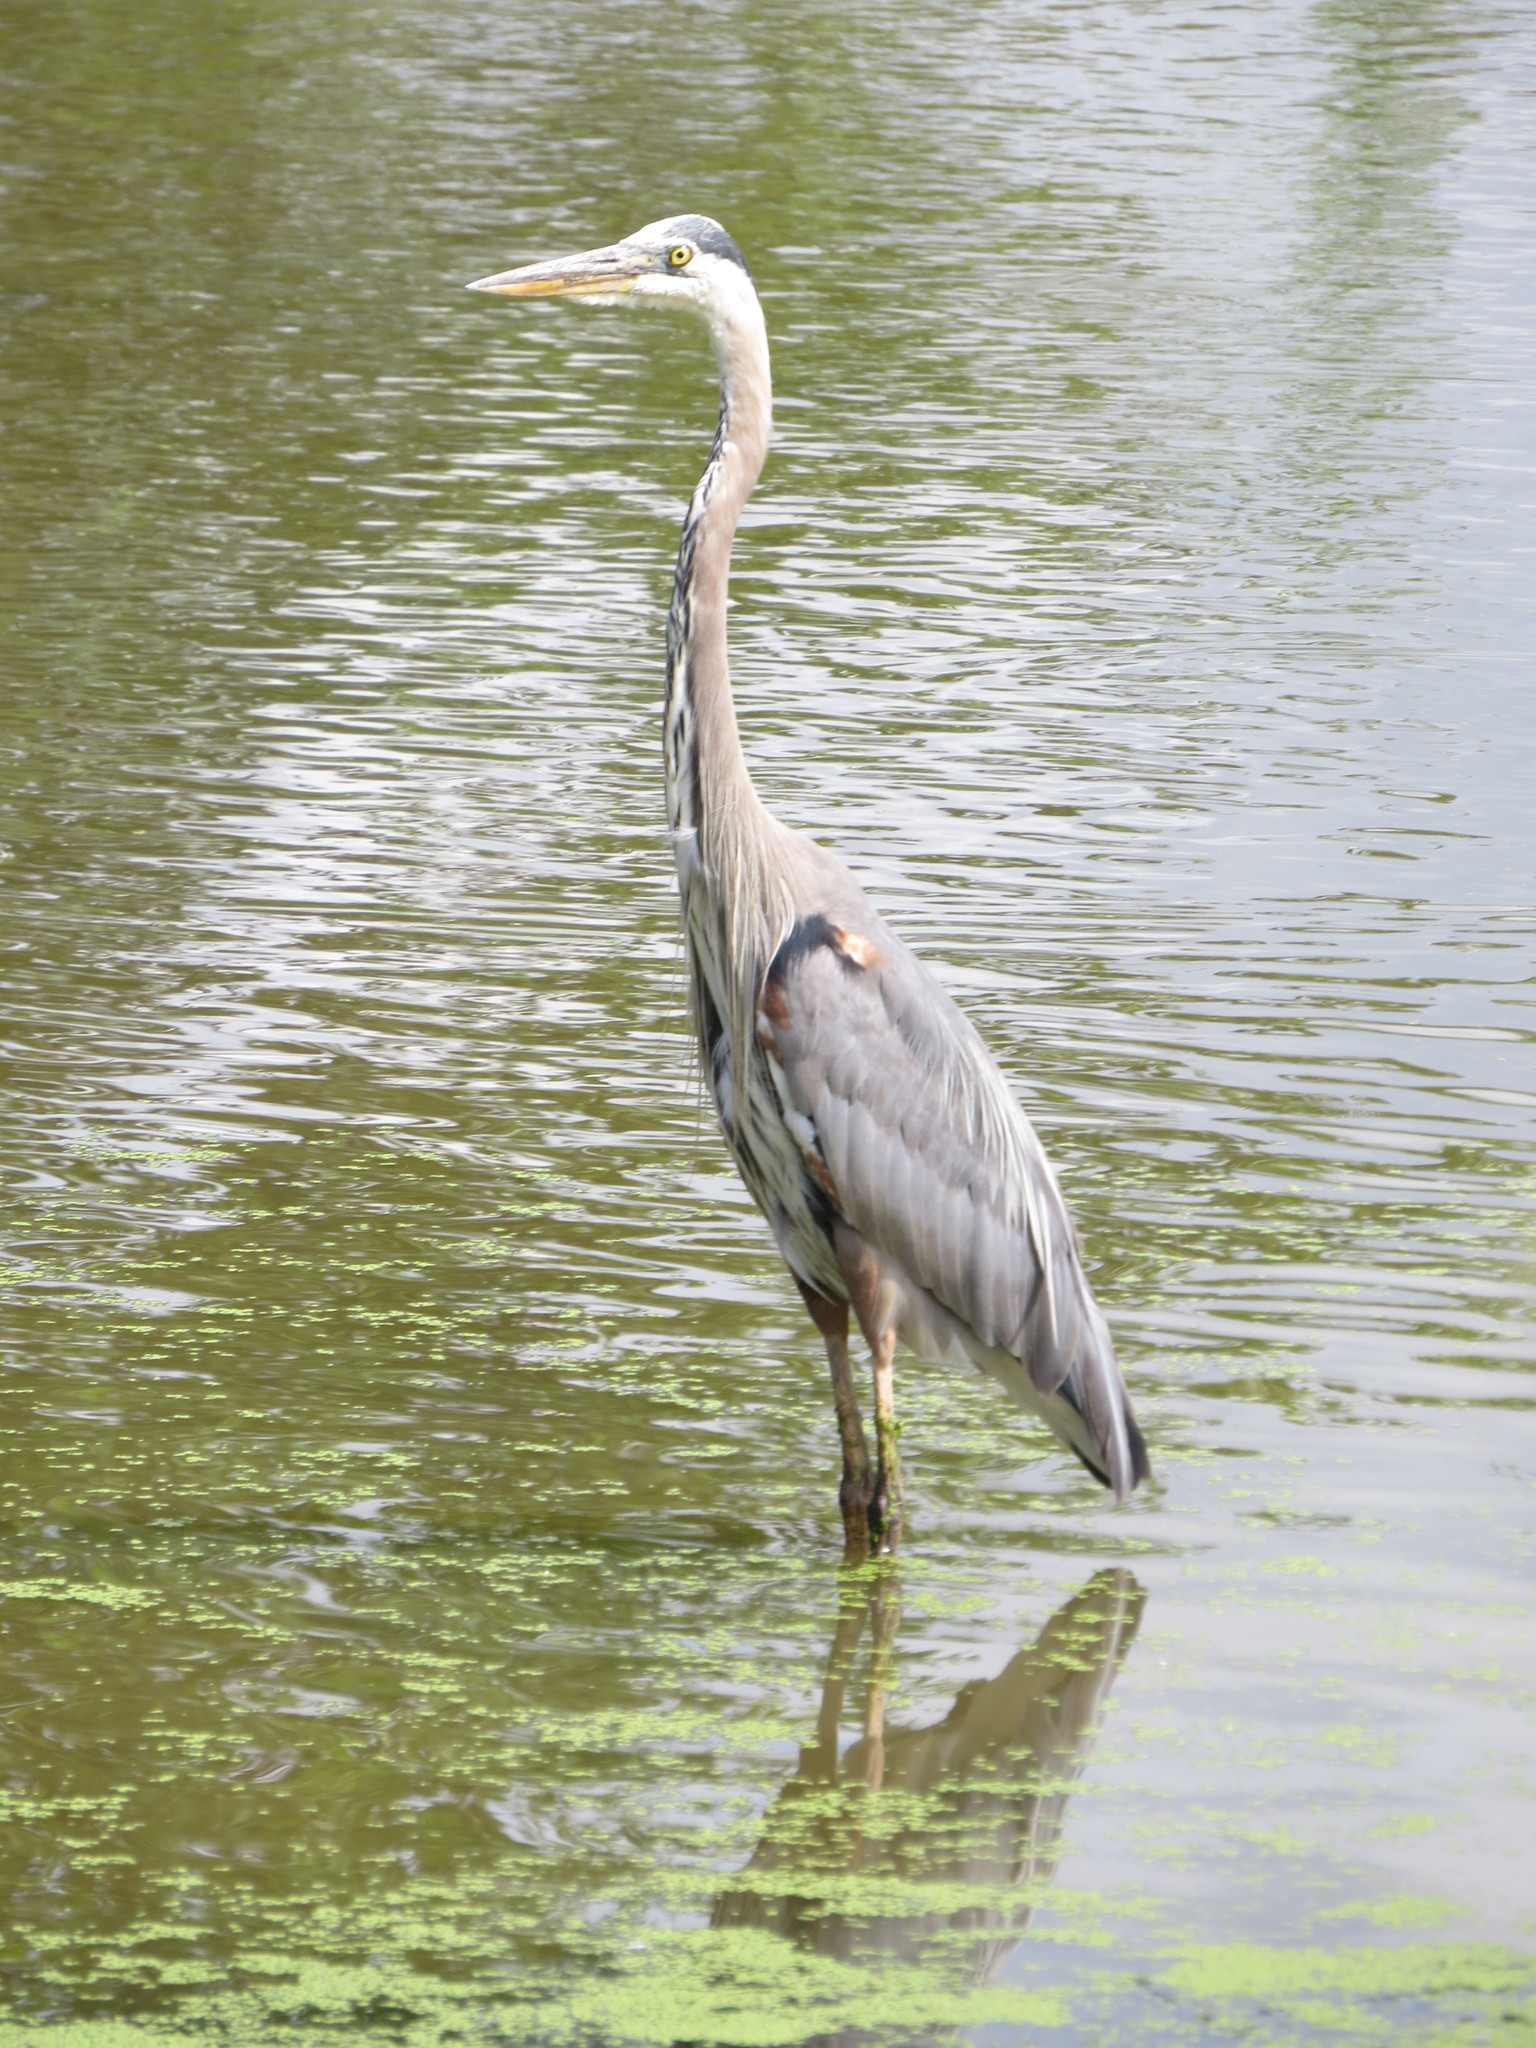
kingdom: Animalia
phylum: Chordata
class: Aves
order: Pelecaniformes
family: Ardeidae
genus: Ardea
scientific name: Ardea herodias
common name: Great blue heron
